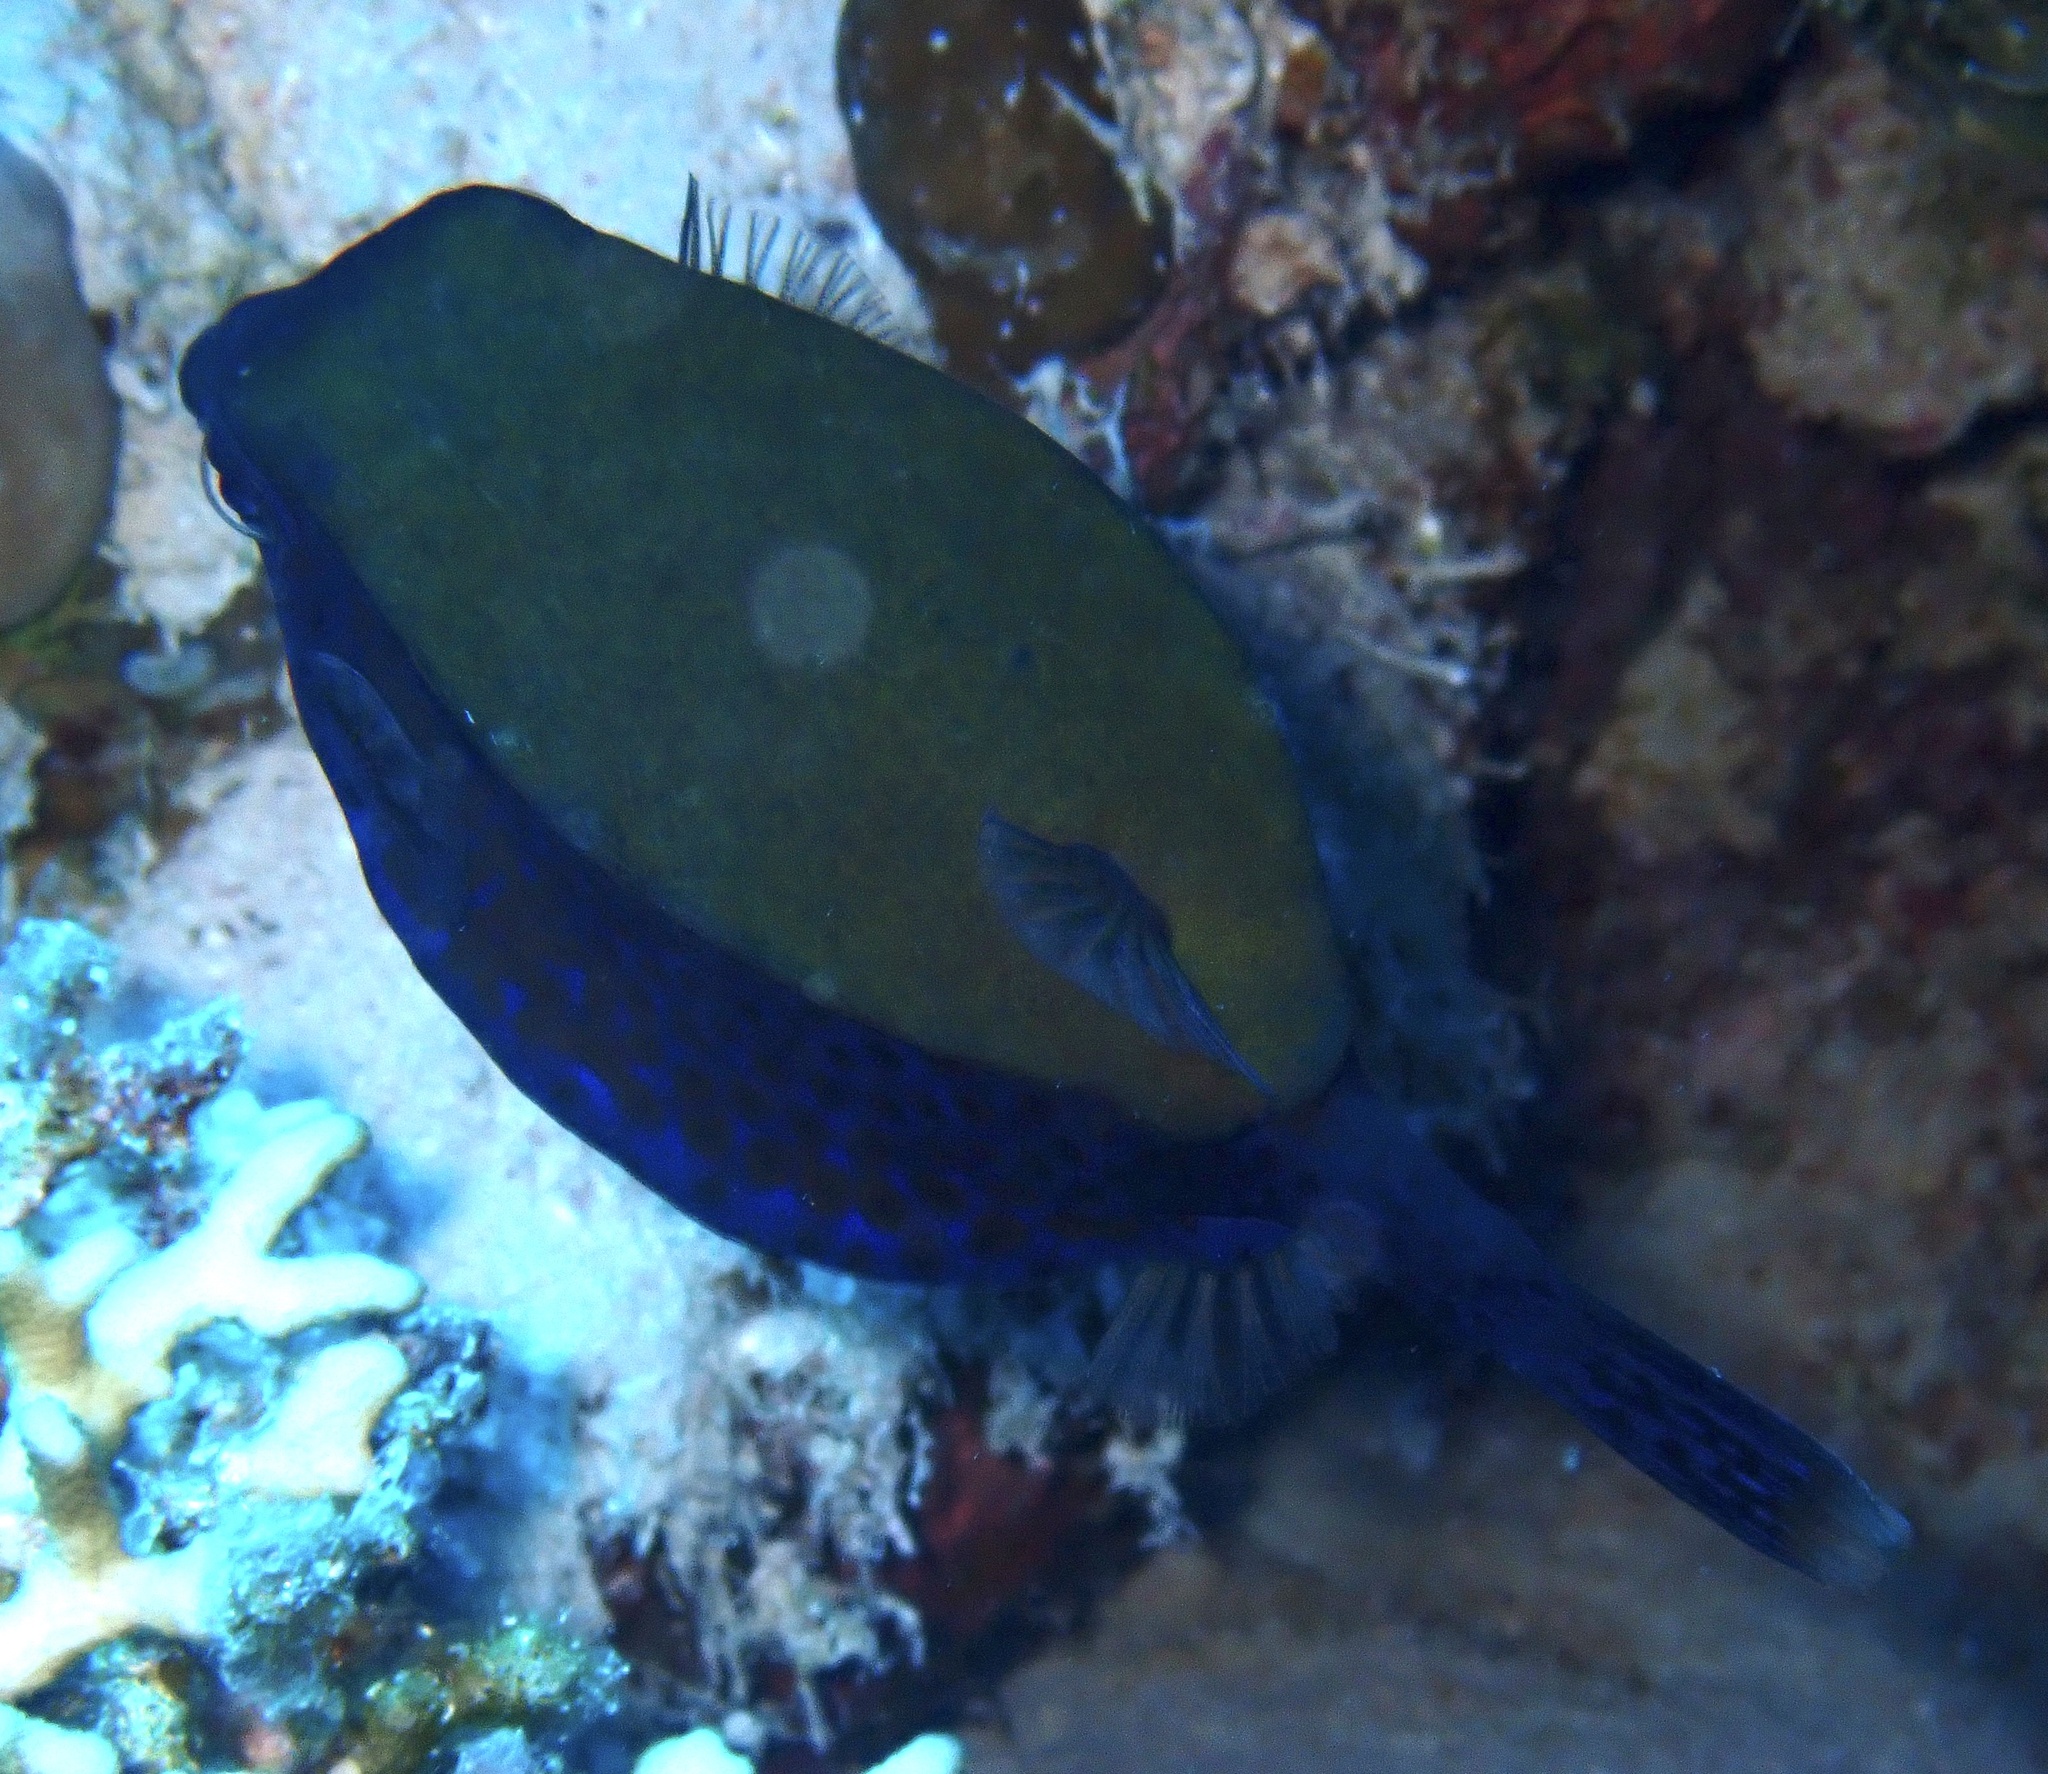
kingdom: Animalia
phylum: Chordata
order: Tetraodontiformes
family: Ostraciidae
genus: Ostracion
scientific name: Ostracion cyanurus
